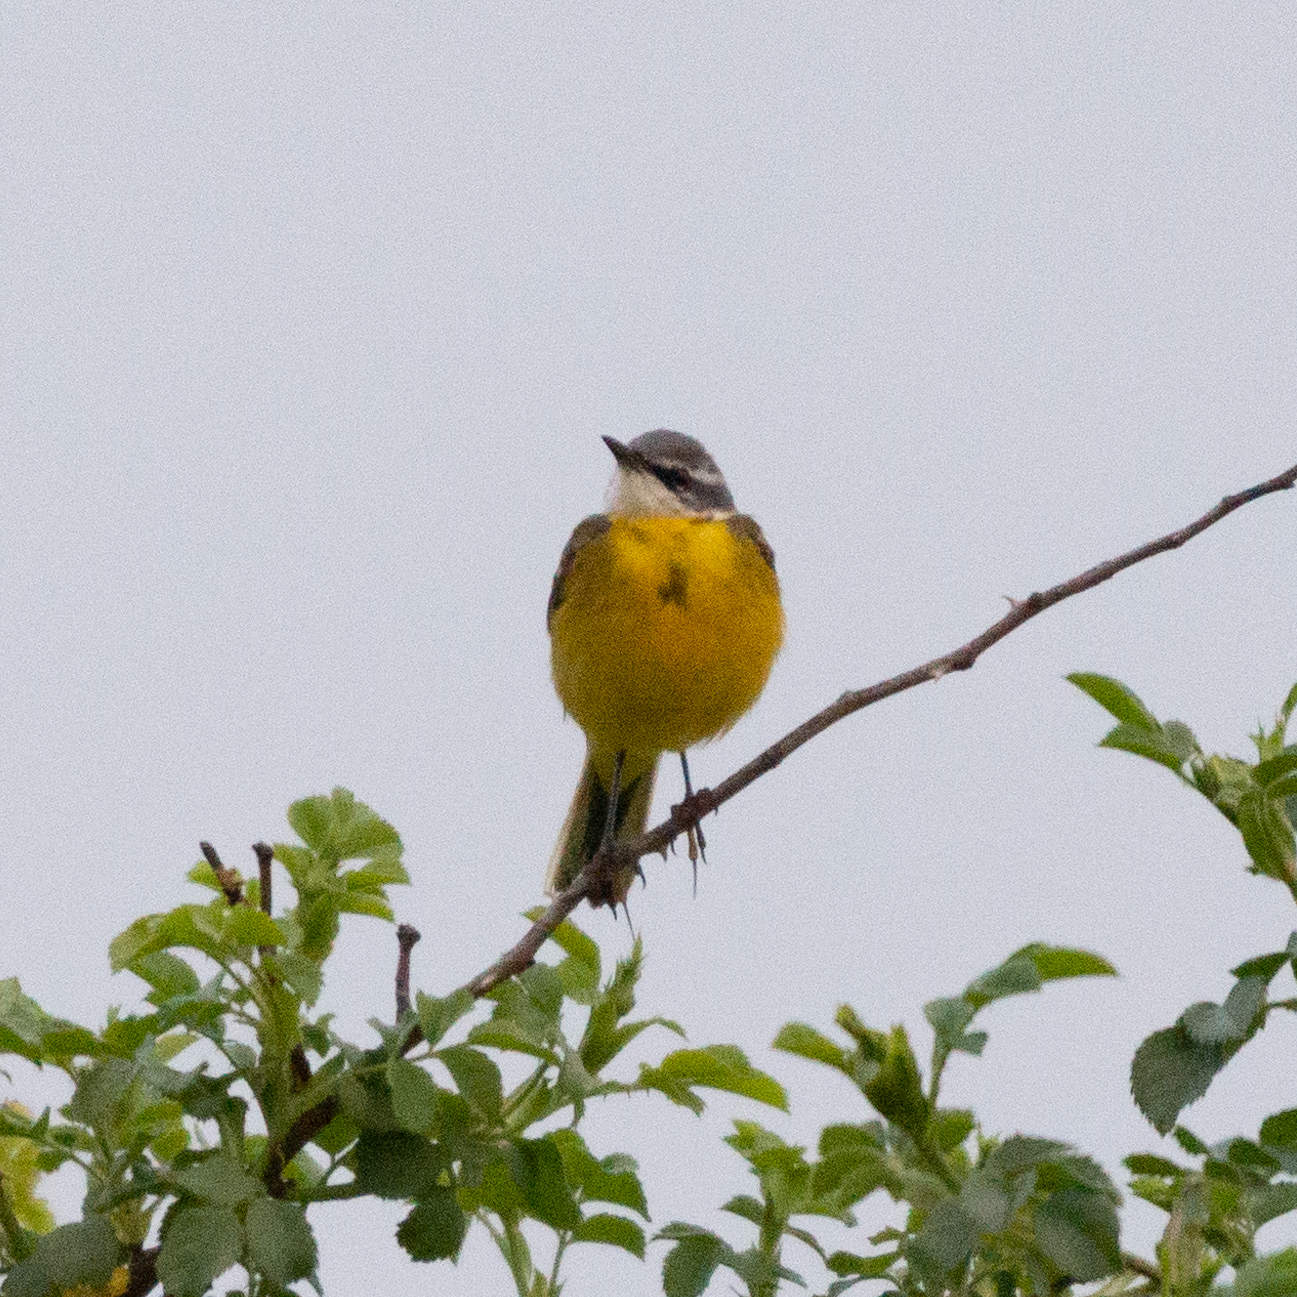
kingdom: Animalia
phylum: Chordata
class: Aves
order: Passeriformes
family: Motacillidae
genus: Motacilla
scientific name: Motacilla flava
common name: Western yellow wagtail
